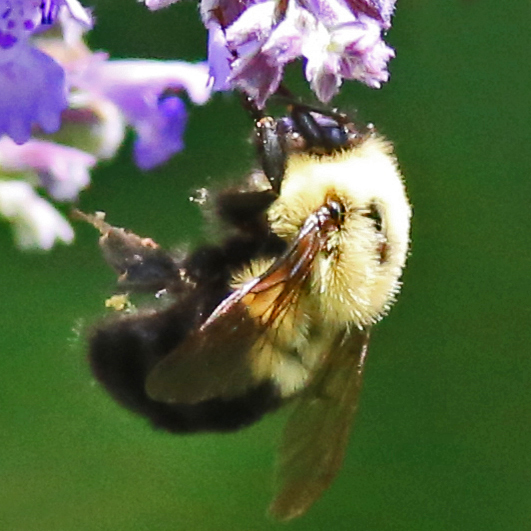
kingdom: Animalia
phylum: Arthropoda
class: Insecta
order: Hymenoptera
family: Apidae
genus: Bombus
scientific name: Bombus bimaculatus
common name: Two-spotted bumble bee
